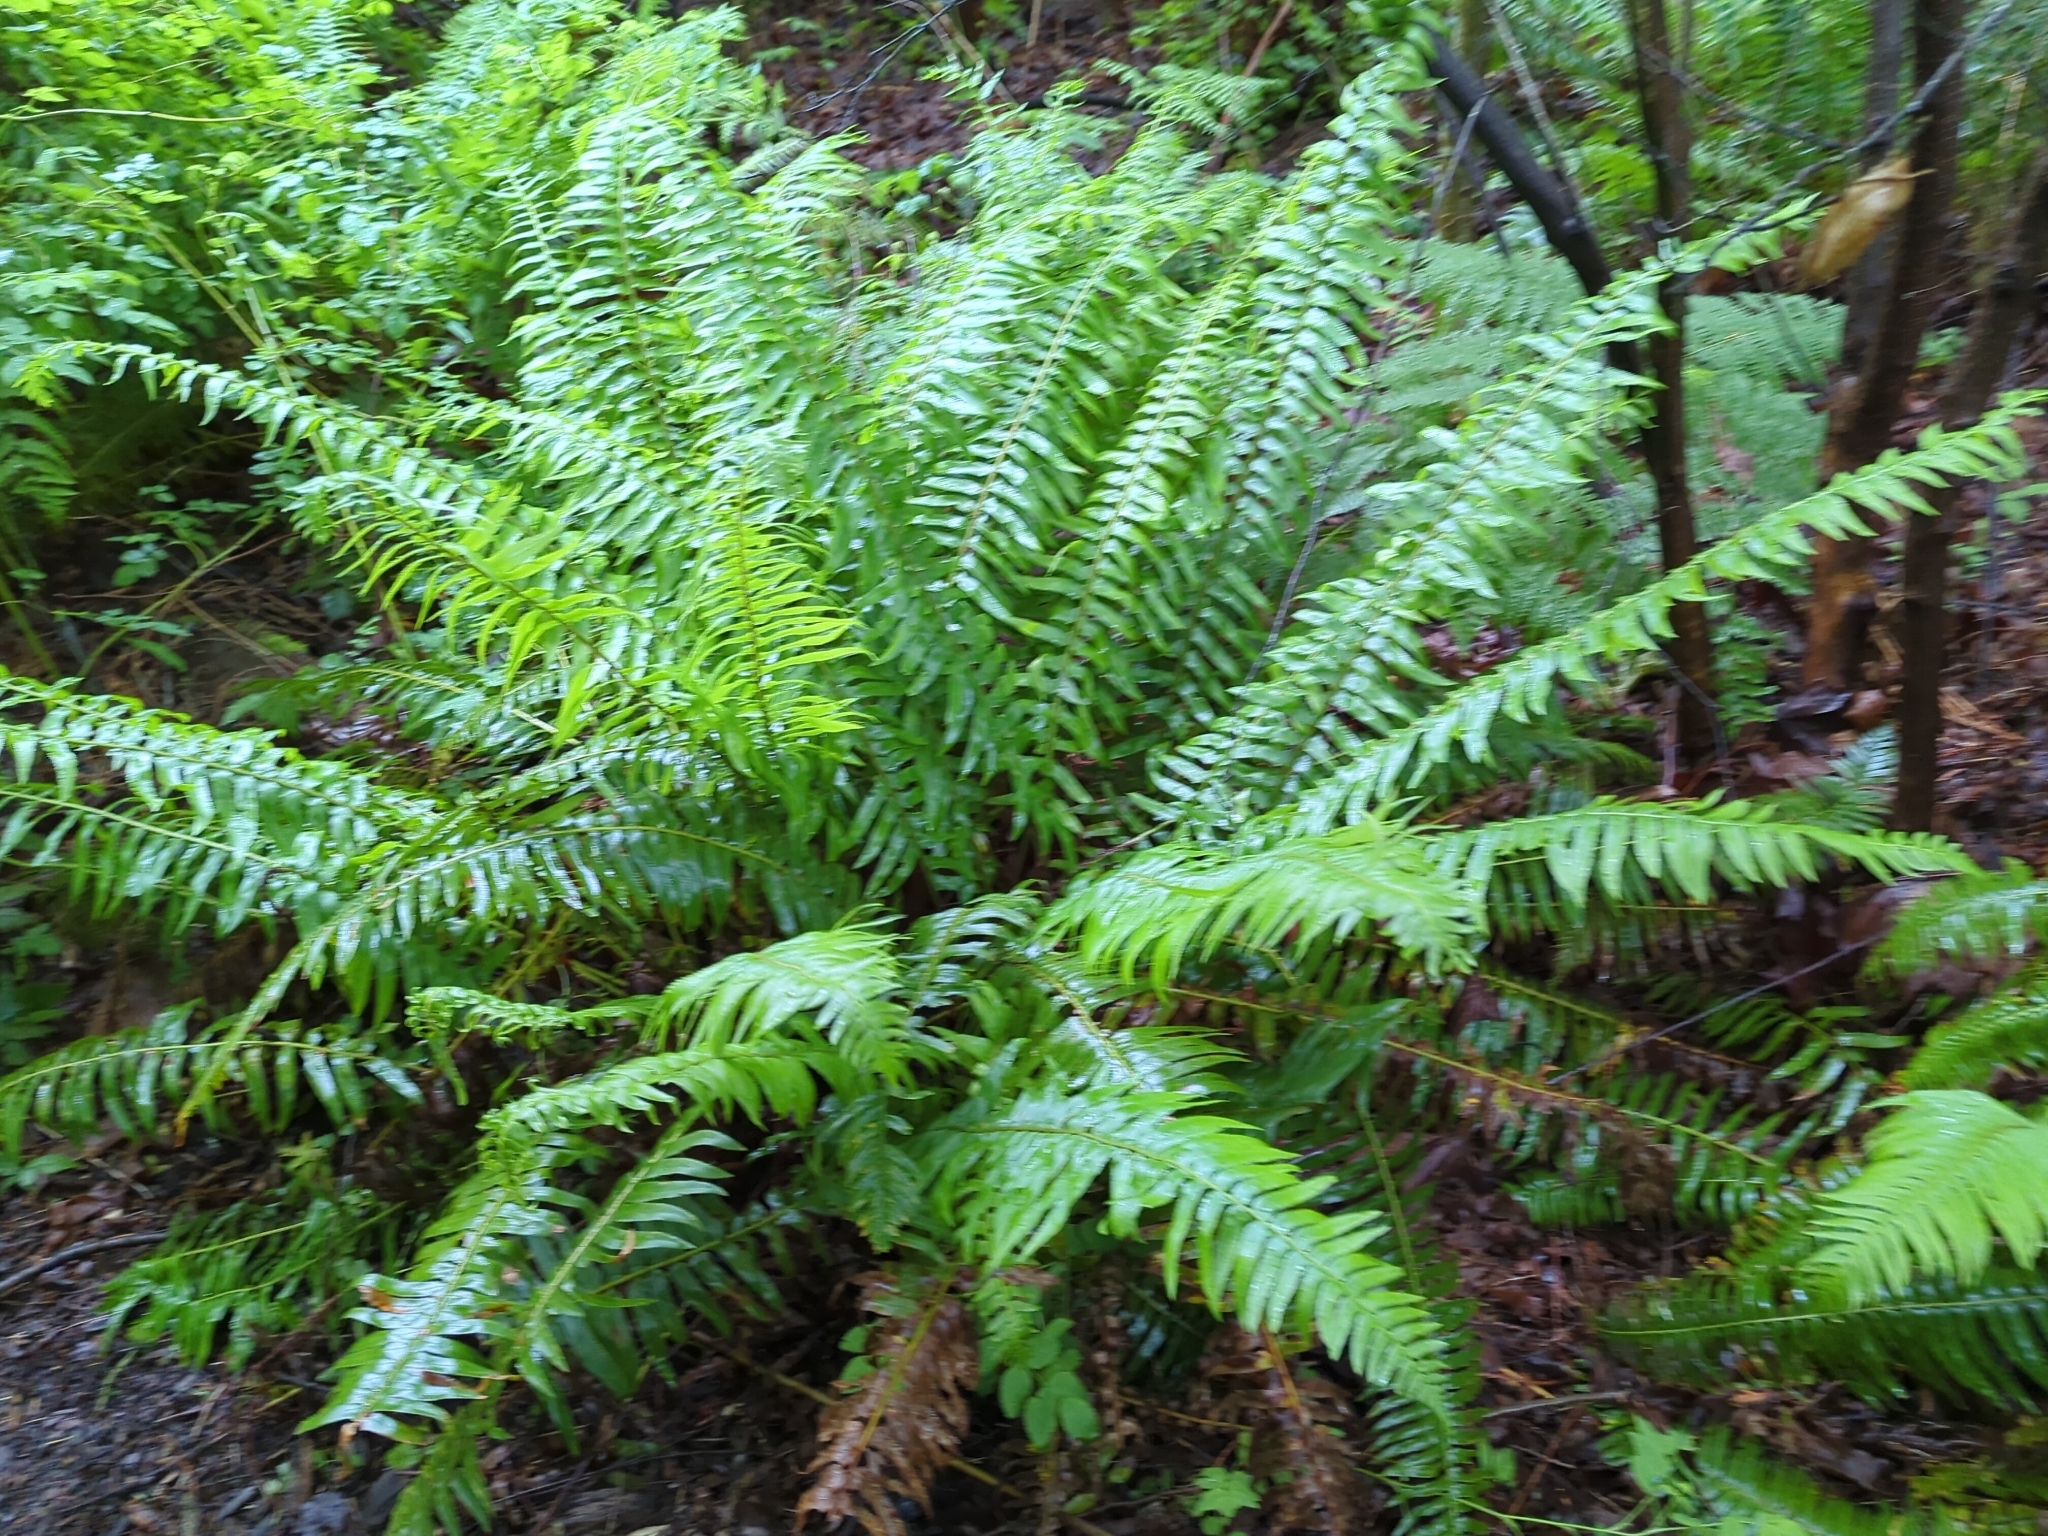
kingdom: Plantae
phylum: Tracheophyta
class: Polypodiopsida
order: Polypodiales
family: Dryopteridaceae
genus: Polystichum
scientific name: Polystichum munitum
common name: Western sword-fern
